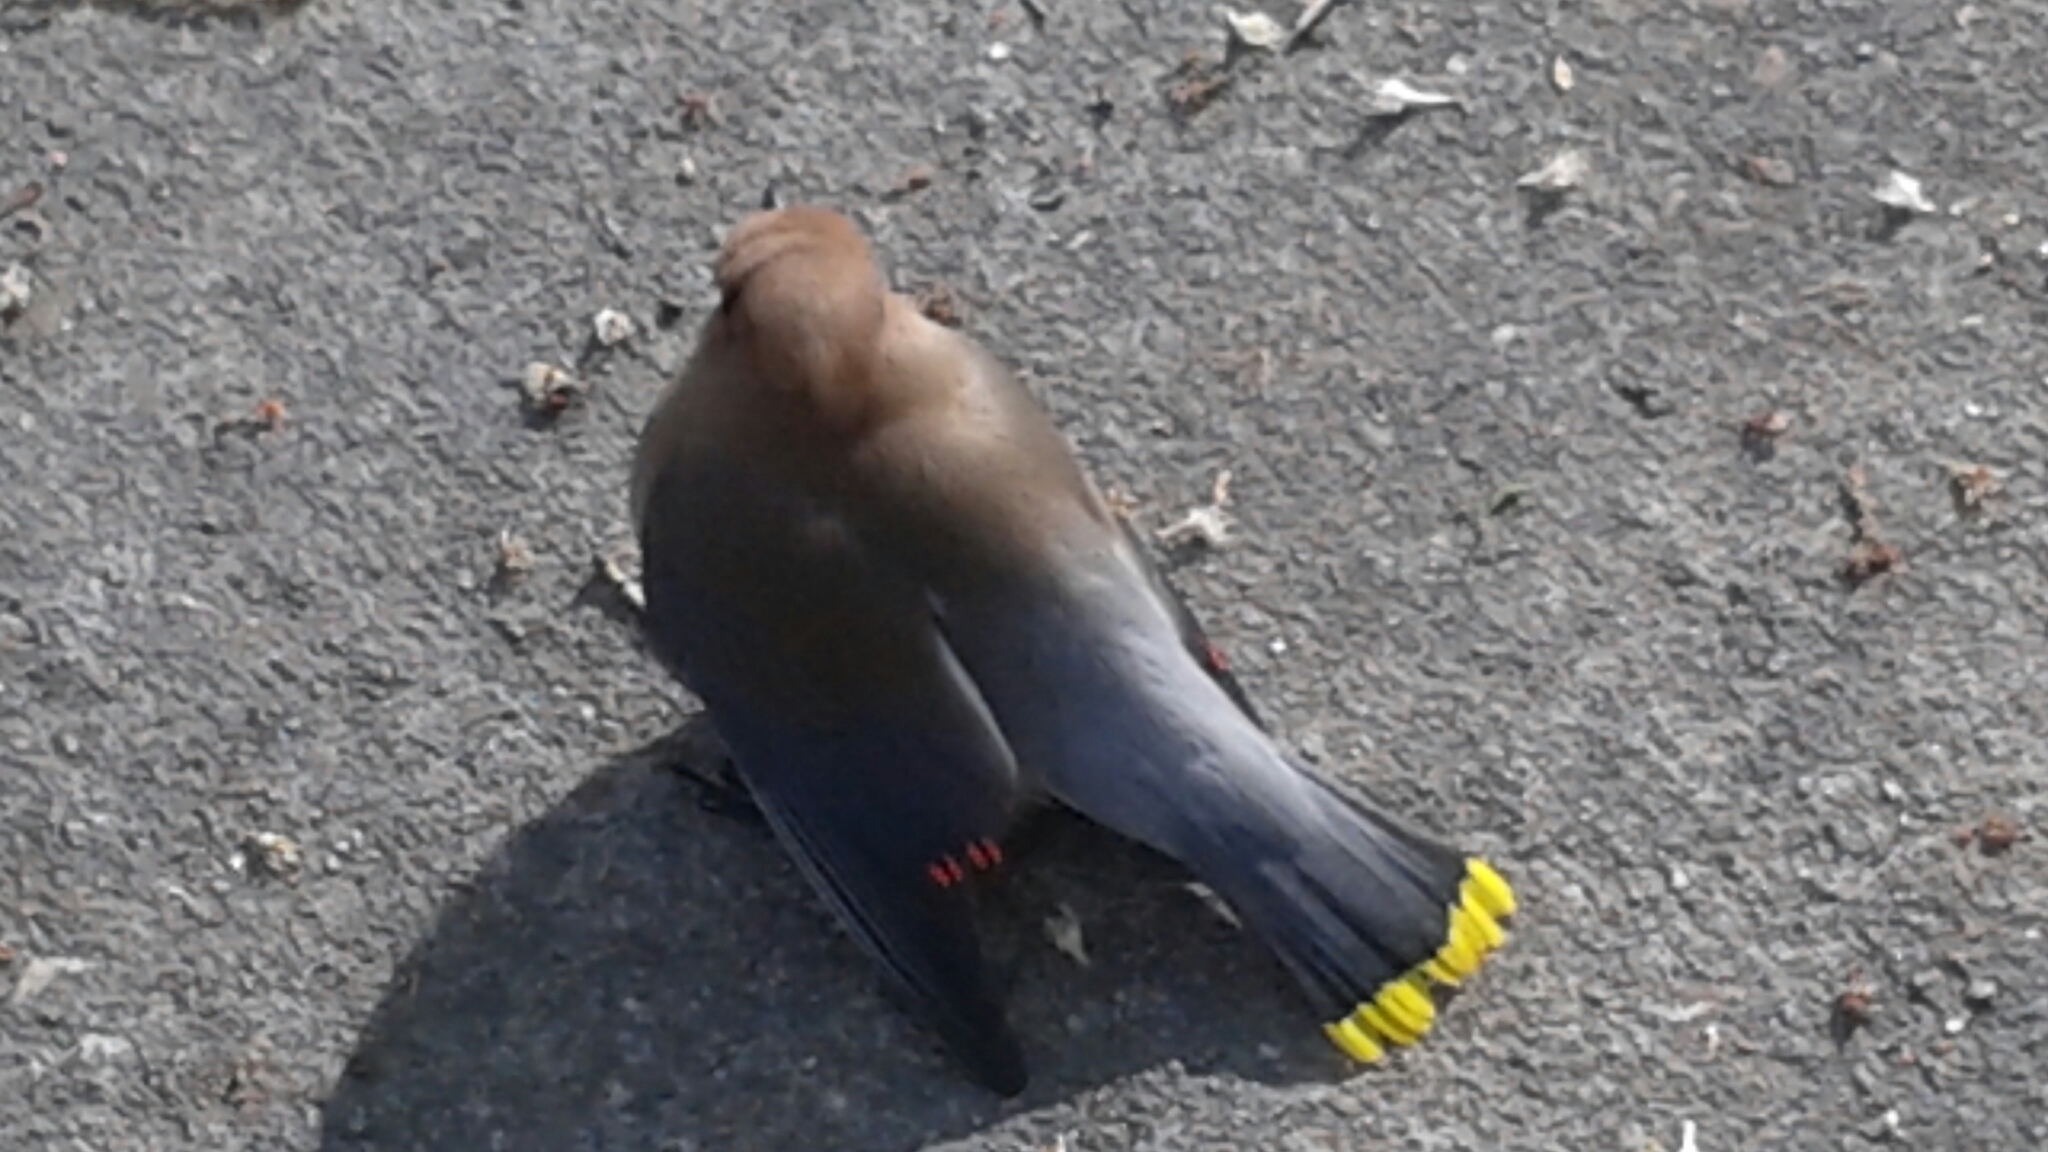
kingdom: Animalia
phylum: Chordata
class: Aves
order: Passeriformes
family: Bombycillidae
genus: Bombycilla
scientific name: Bombycilla cedrorum
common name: Cedar waxwing
